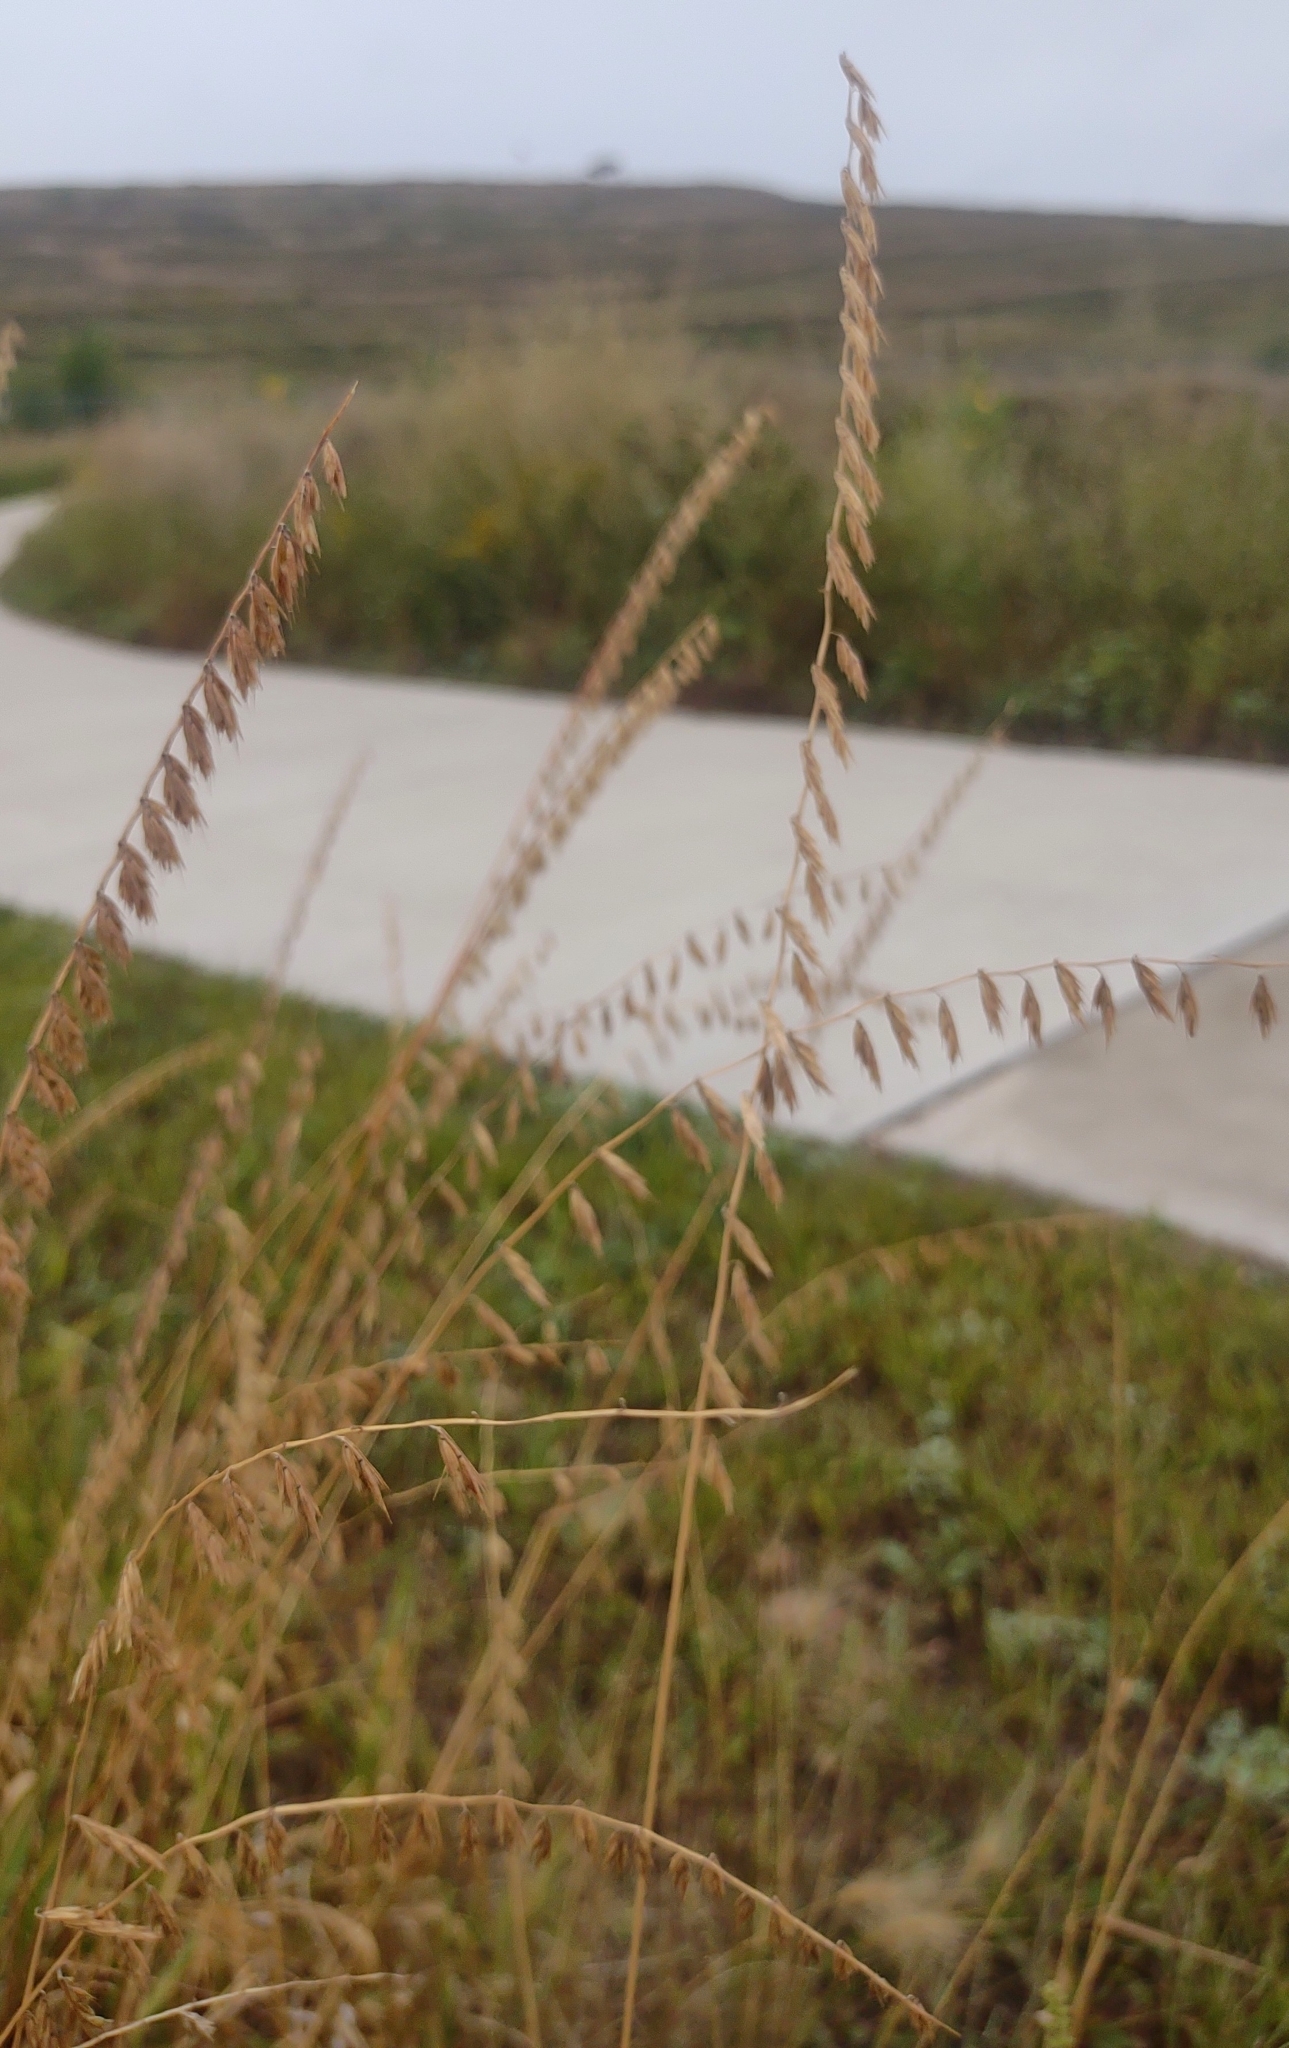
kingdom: Plantae
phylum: Tracheophyta
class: Liliopsida
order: Poales
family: Poaceae
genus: Bouteloua
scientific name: Bouteloua curtipendula
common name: Side-oats grama
